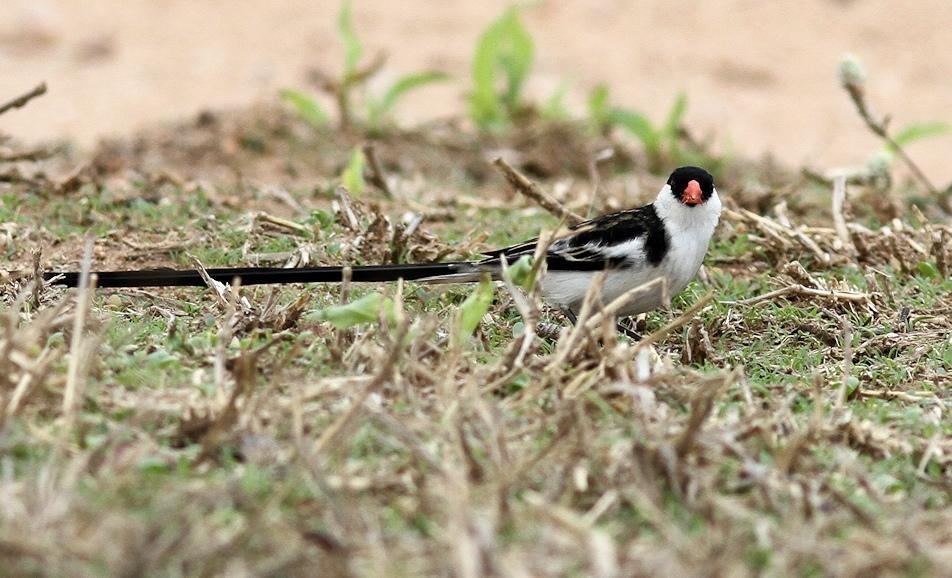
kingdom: Animalia
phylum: Chordata
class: Aves
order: Passeriformes
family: Viduidae
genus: Vidua
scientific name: Vidua macroura
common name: Pin-tailed whydah
